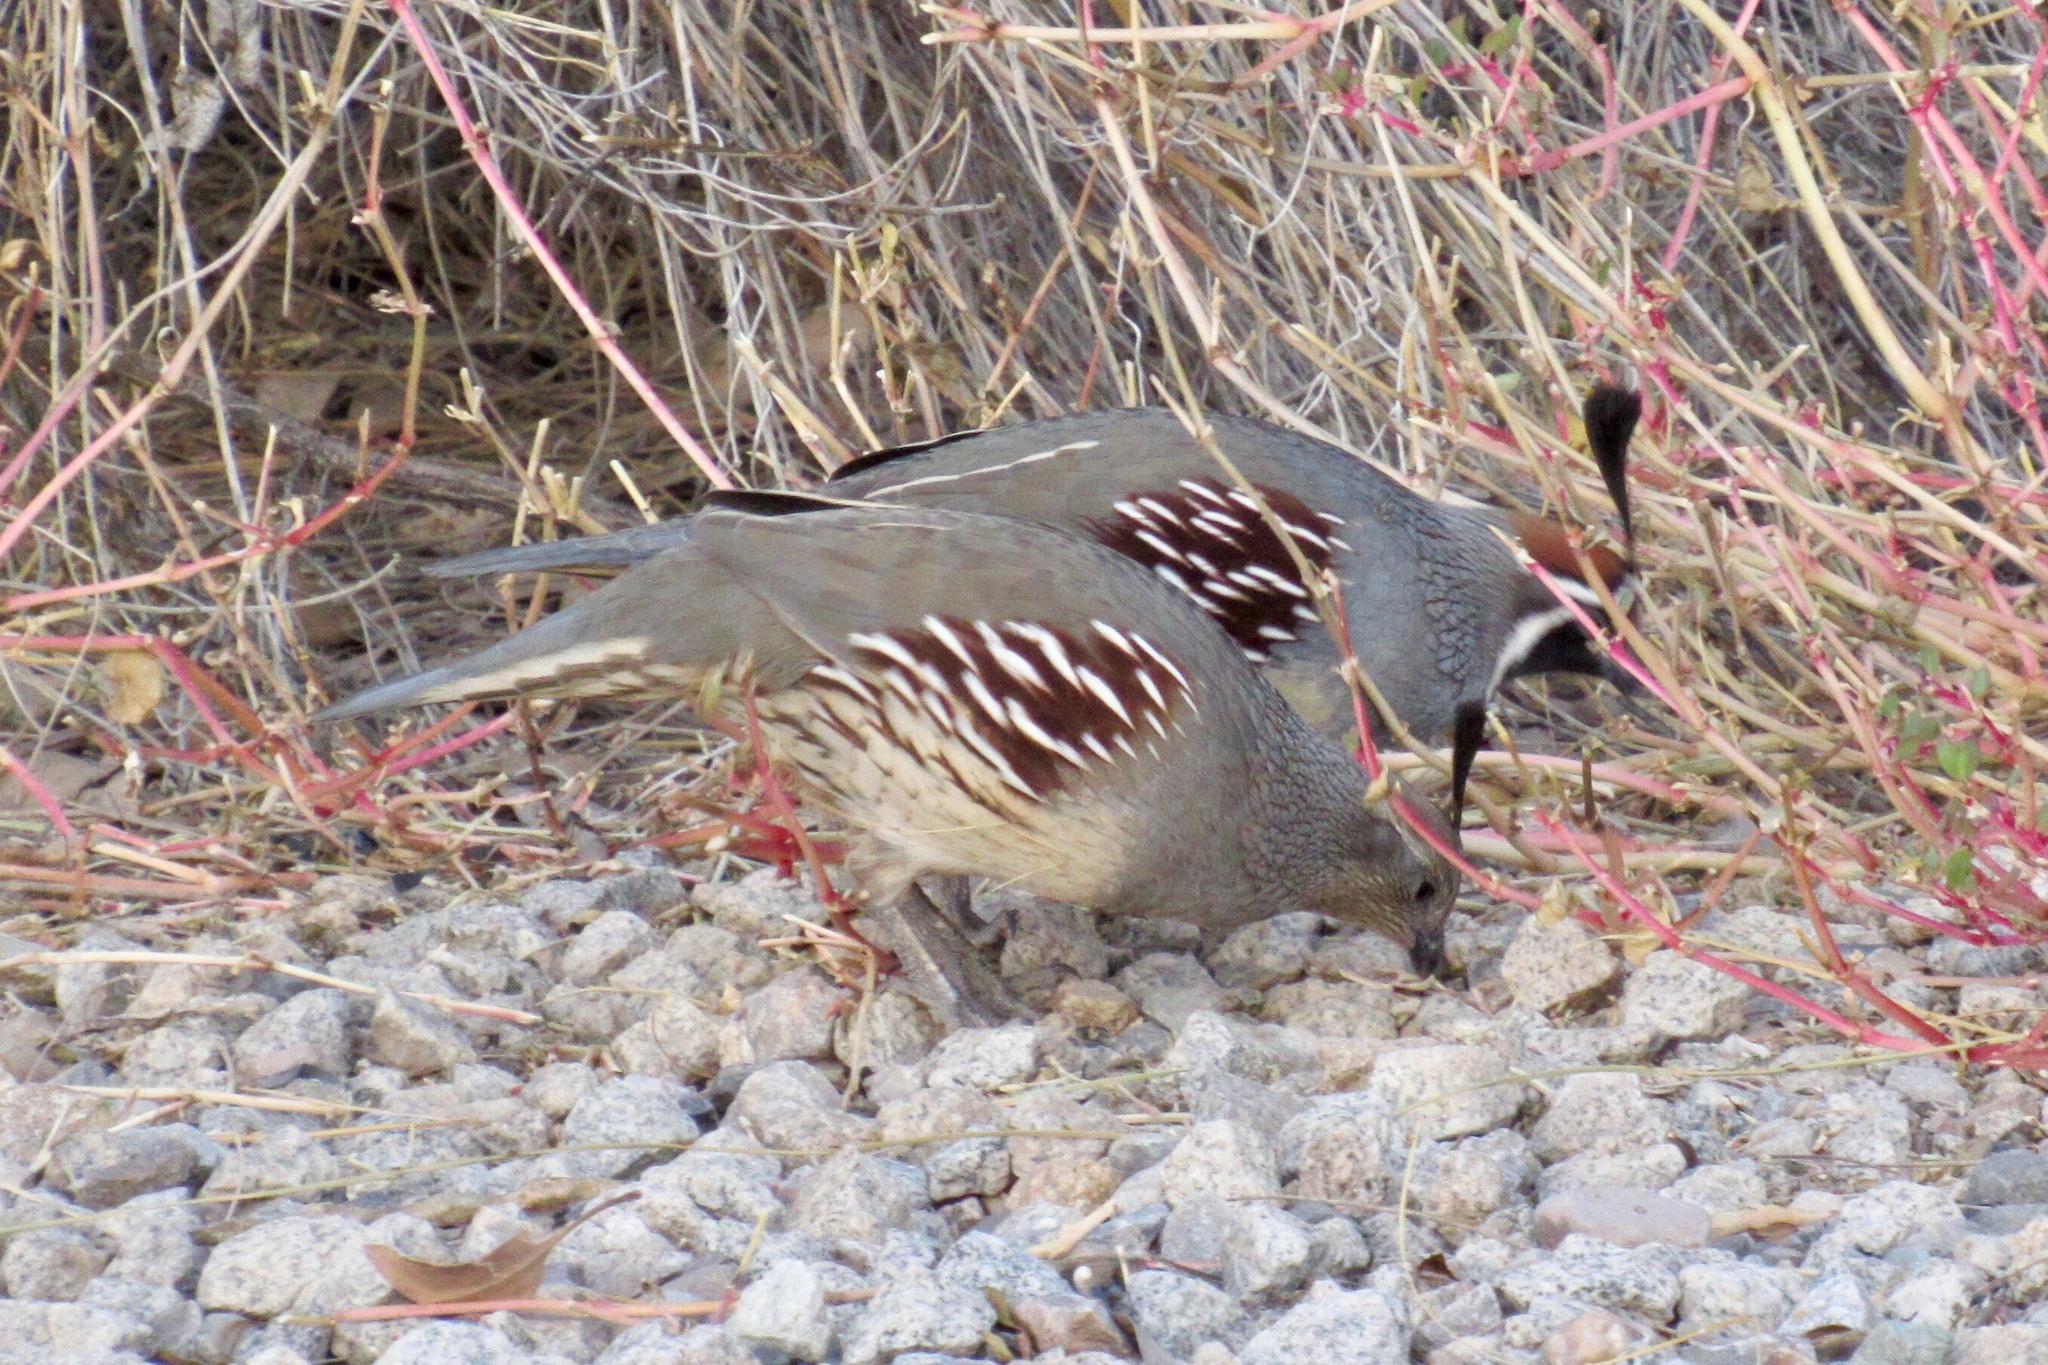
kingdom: Animalia
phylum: Chordata
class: Aves
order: Galliformes
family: Odontophoridae
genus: Callipepla
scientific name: Callipepla gambelii
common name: Gambel's quail
